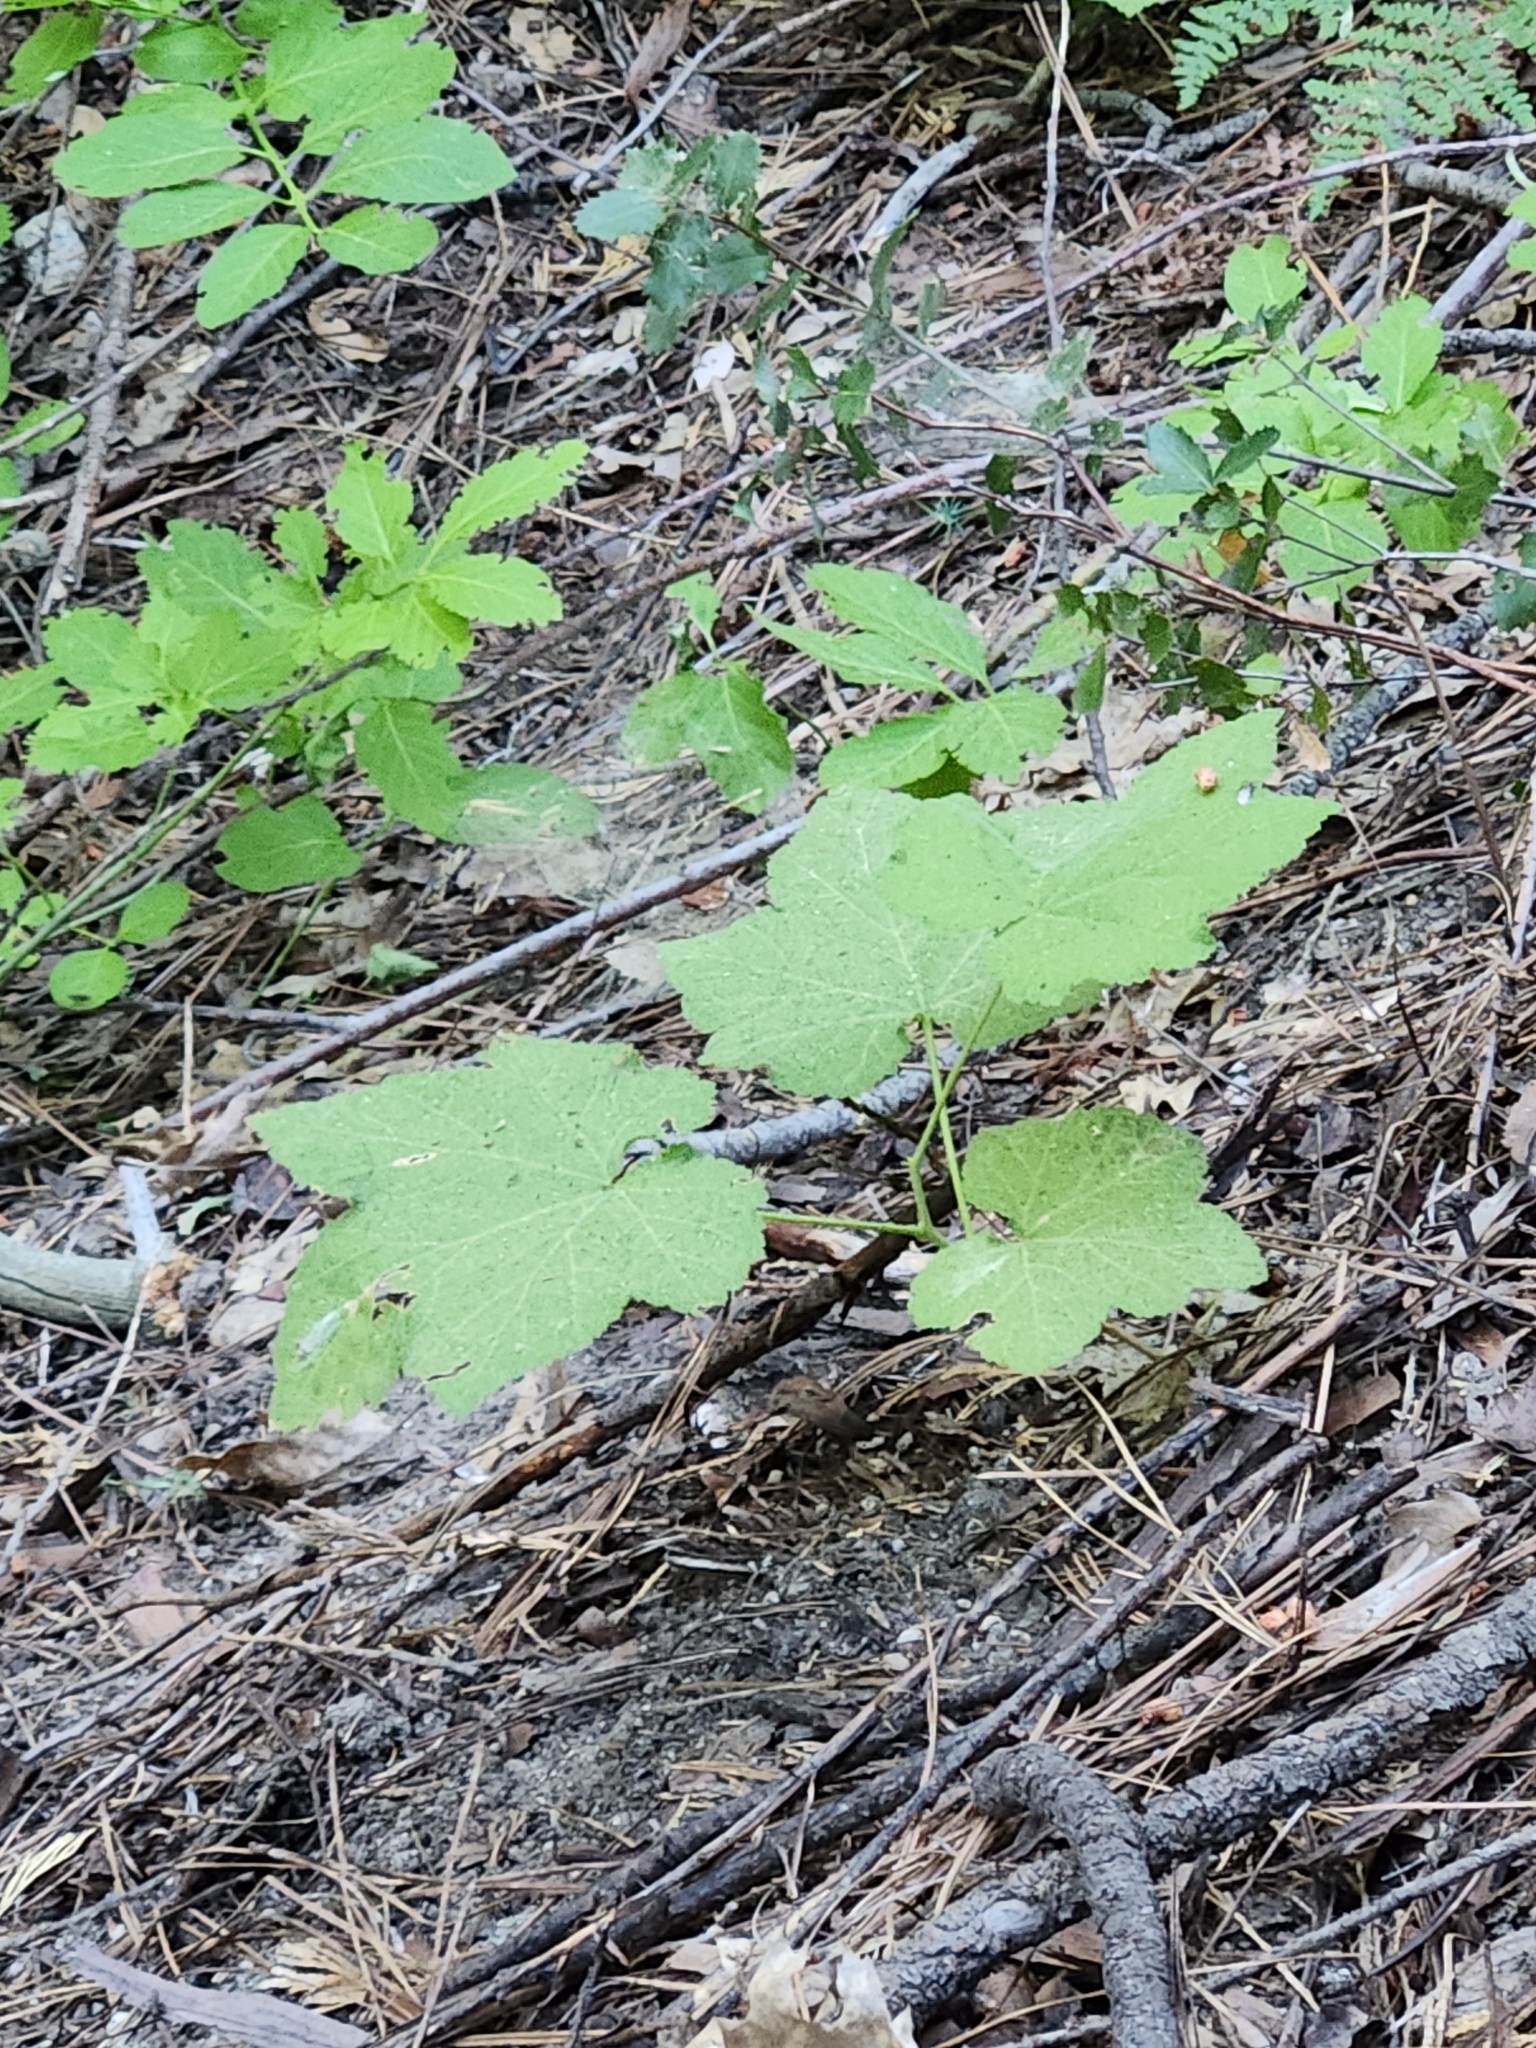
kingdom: Plantae
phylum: Tracheophyta
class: Magnoliopsida
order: Rosales
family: Rosaceae
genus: Rubus
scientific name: Rubus parviflorus
